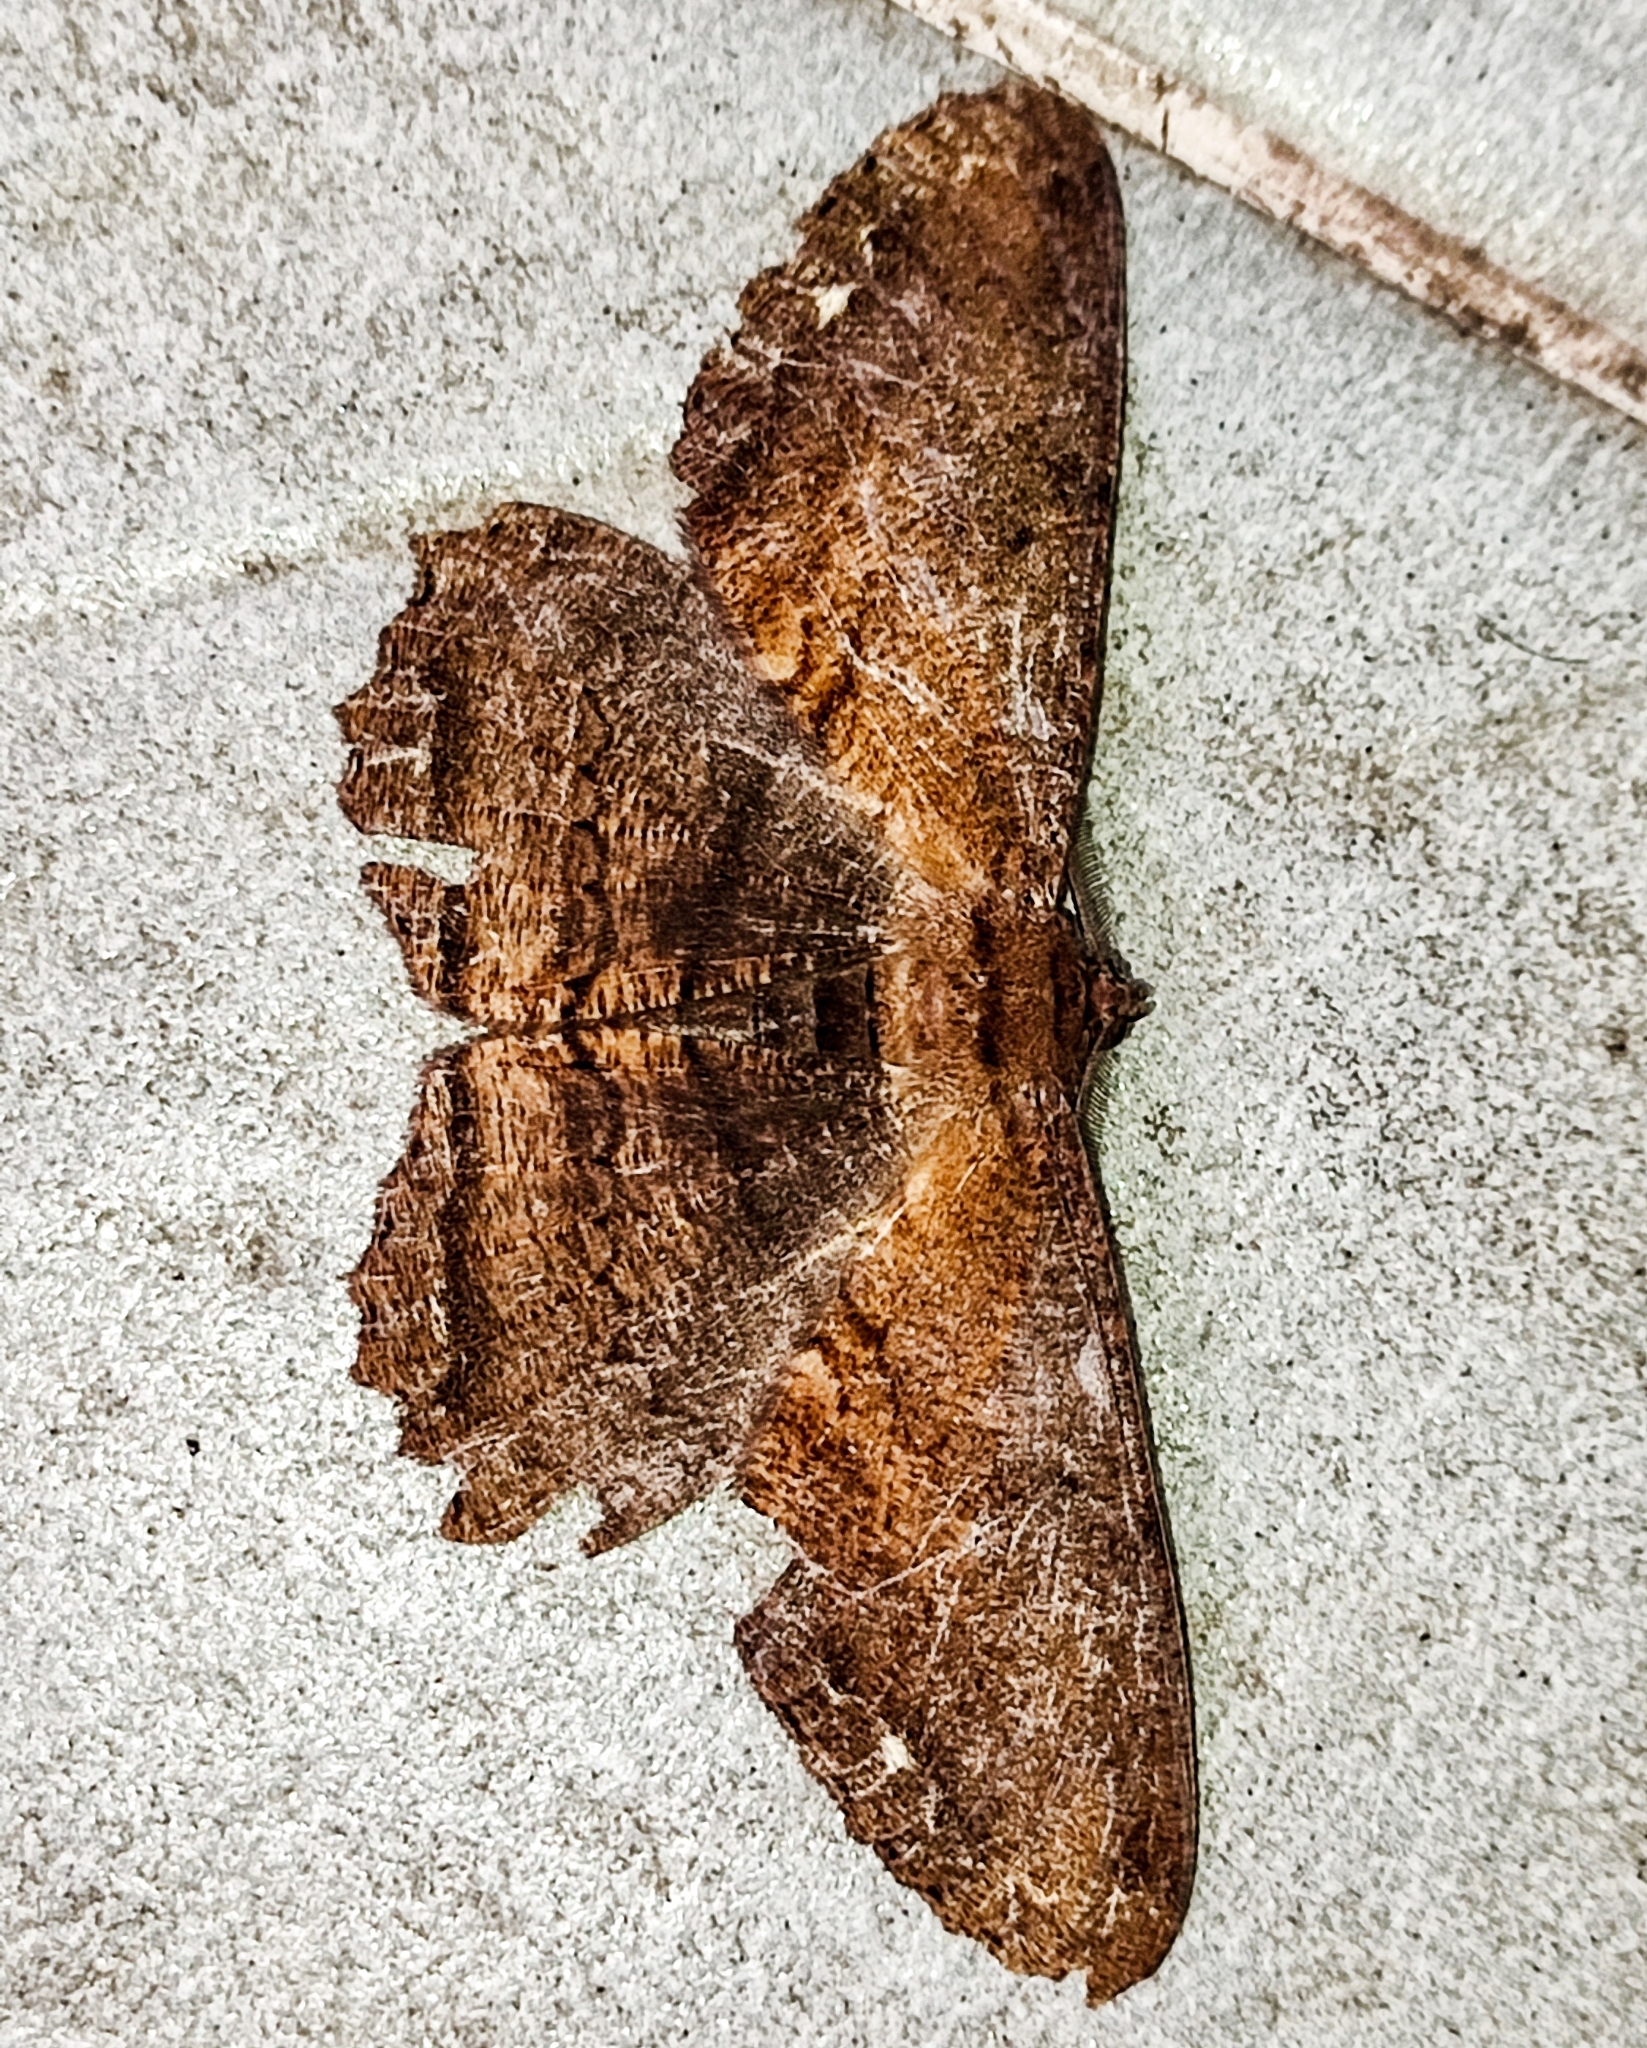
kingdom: Animalia
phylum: Arthropoda
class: Insecta
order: Lepidoptera
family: Geometridae
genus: Chorodna
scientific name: Chorodna creataria
